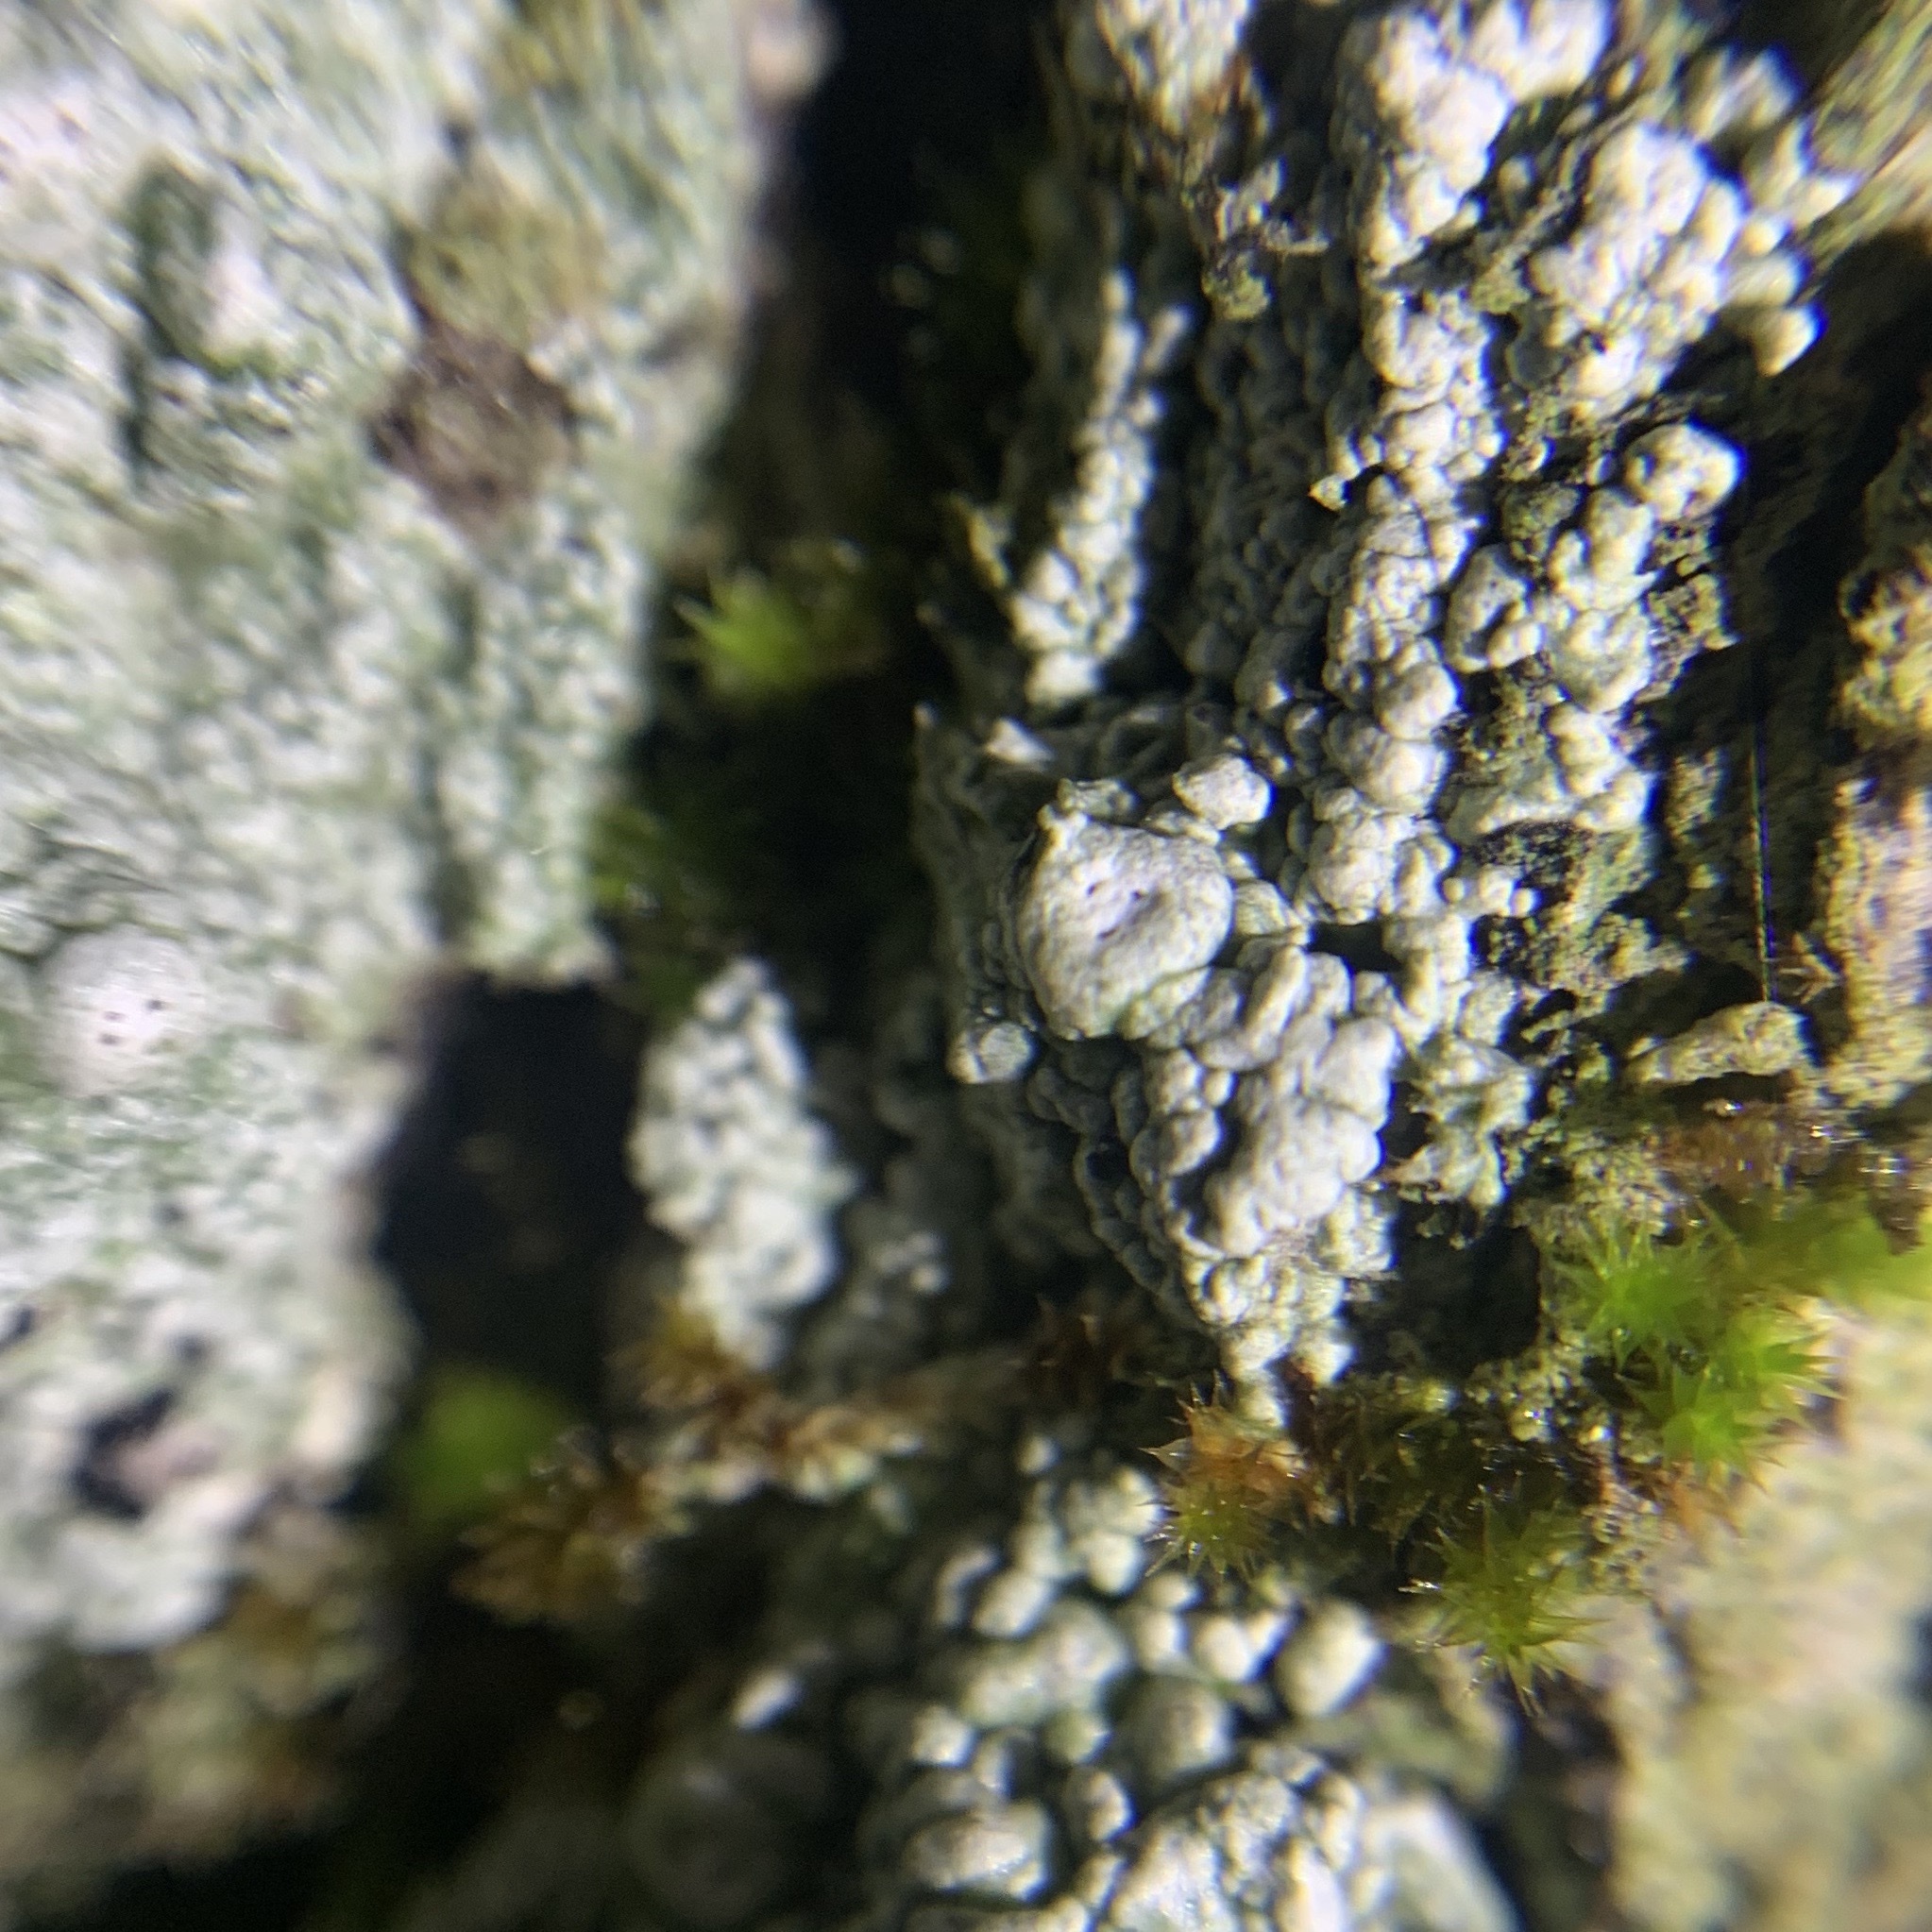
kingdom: Fungi
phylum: Ascomycota
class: Lecanoromycetes
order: Pertusariales
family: Pertusariaceae
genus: Pertusaria
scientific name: Pertusaria paratuberculifera
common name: Spotted wart lichen
